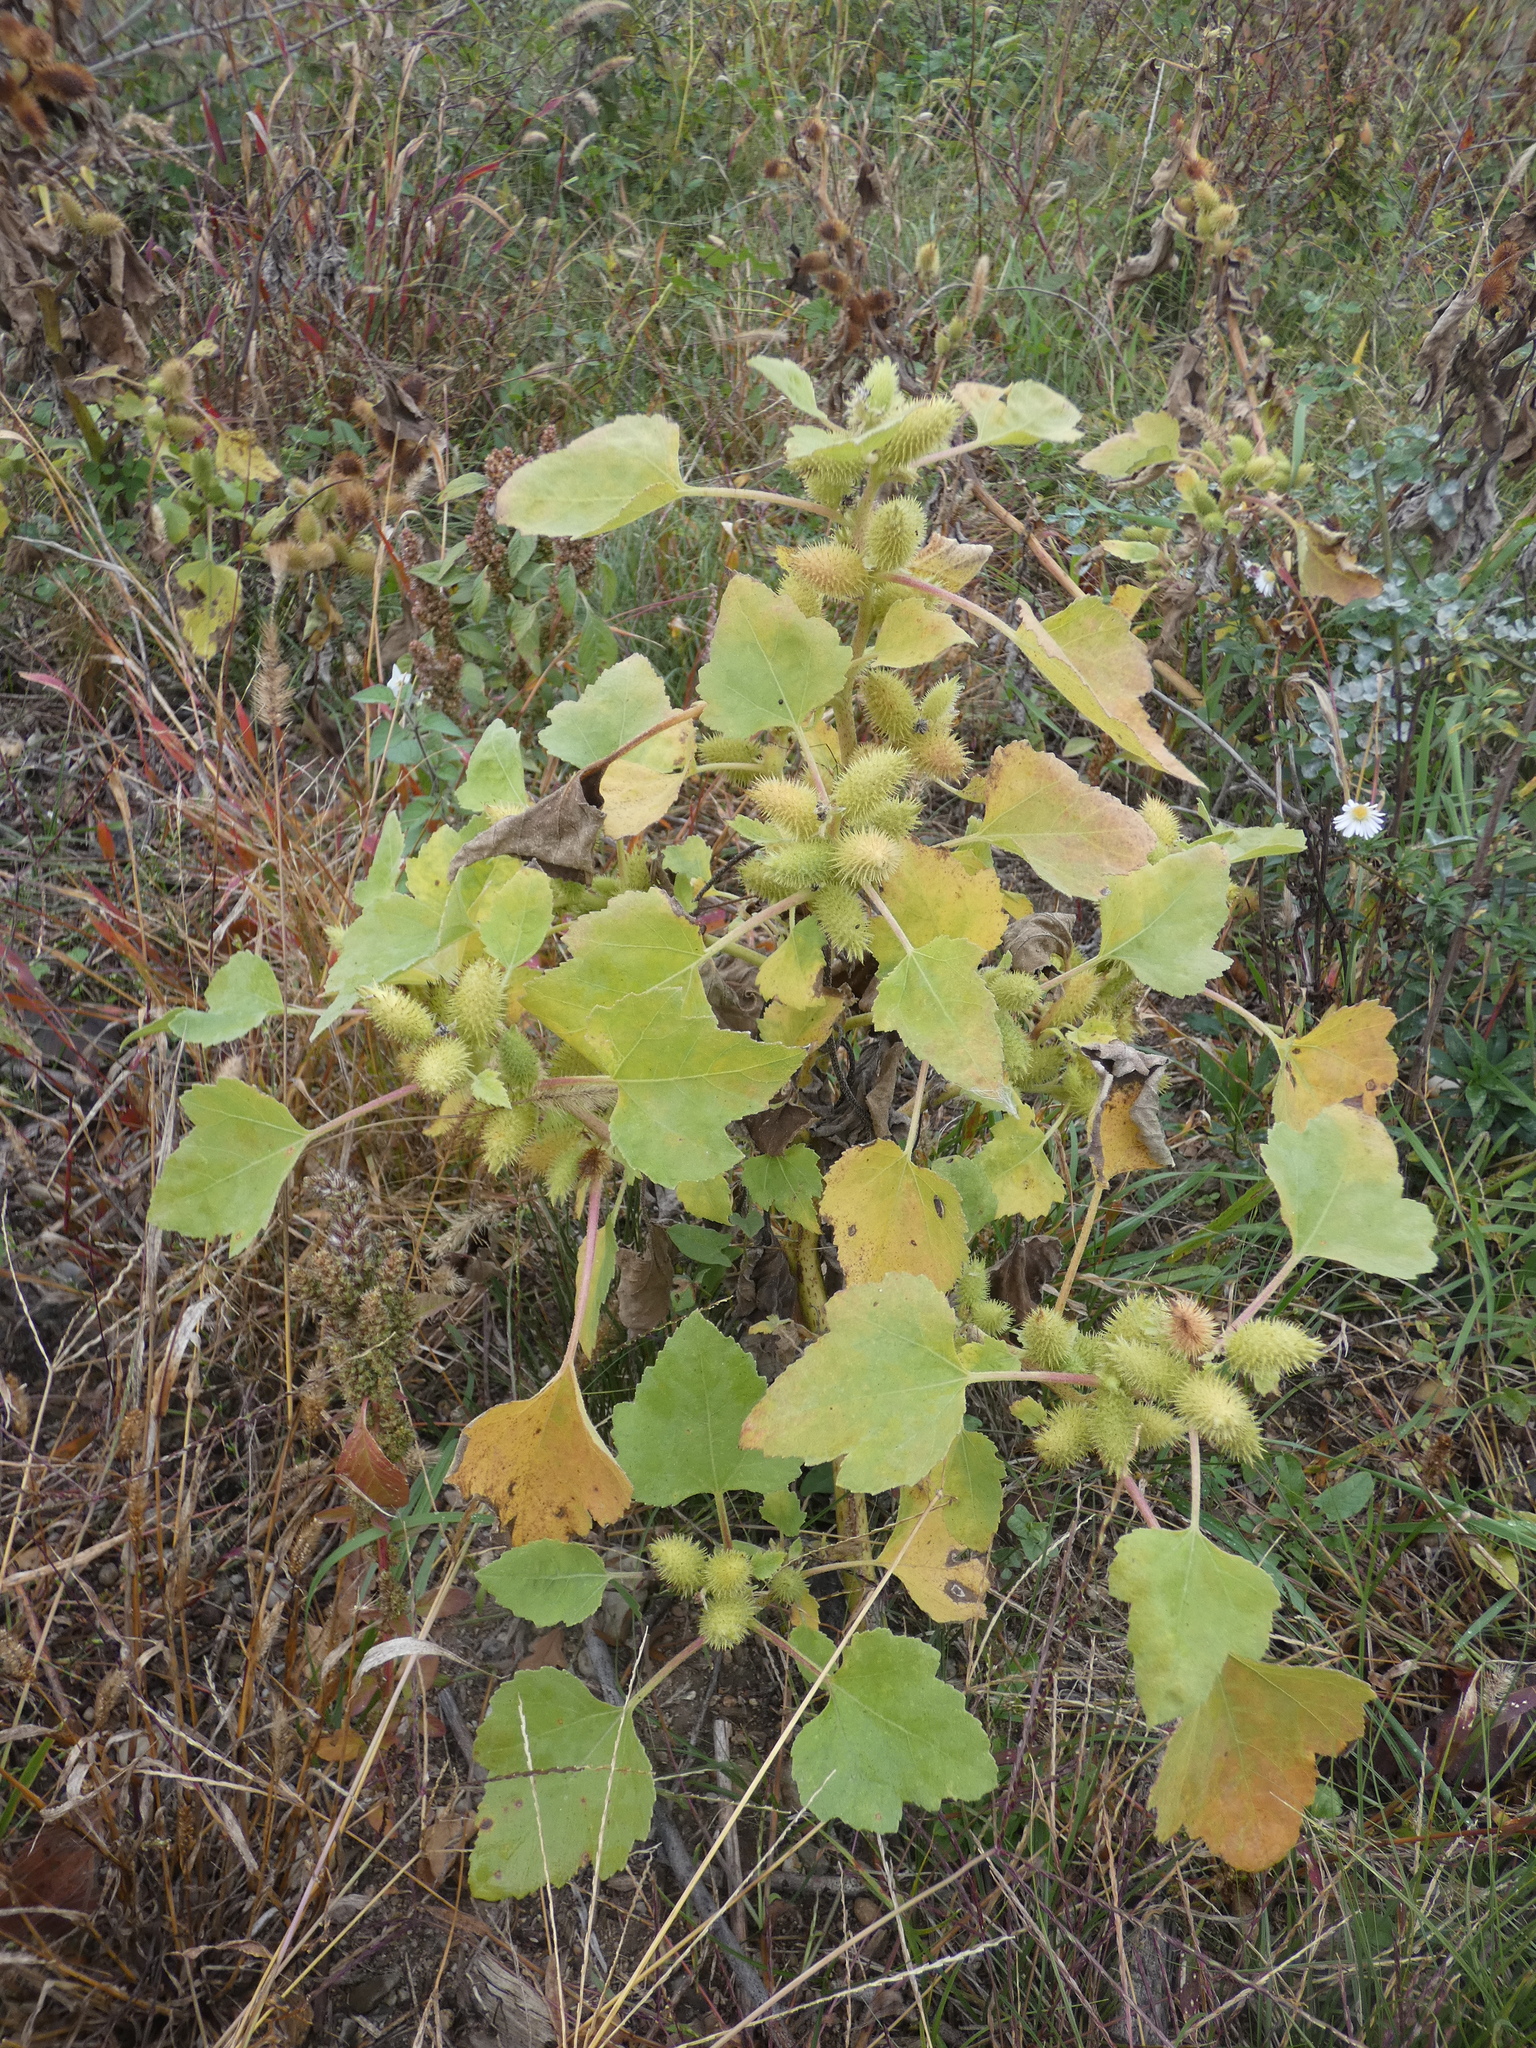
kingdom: Plantae
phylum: Tracheophyta
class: Magnoliopsida
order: Asterales
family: Asteraceae
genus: Xanthium
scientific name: Xanthium strumarium
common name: Rough cocklebur
